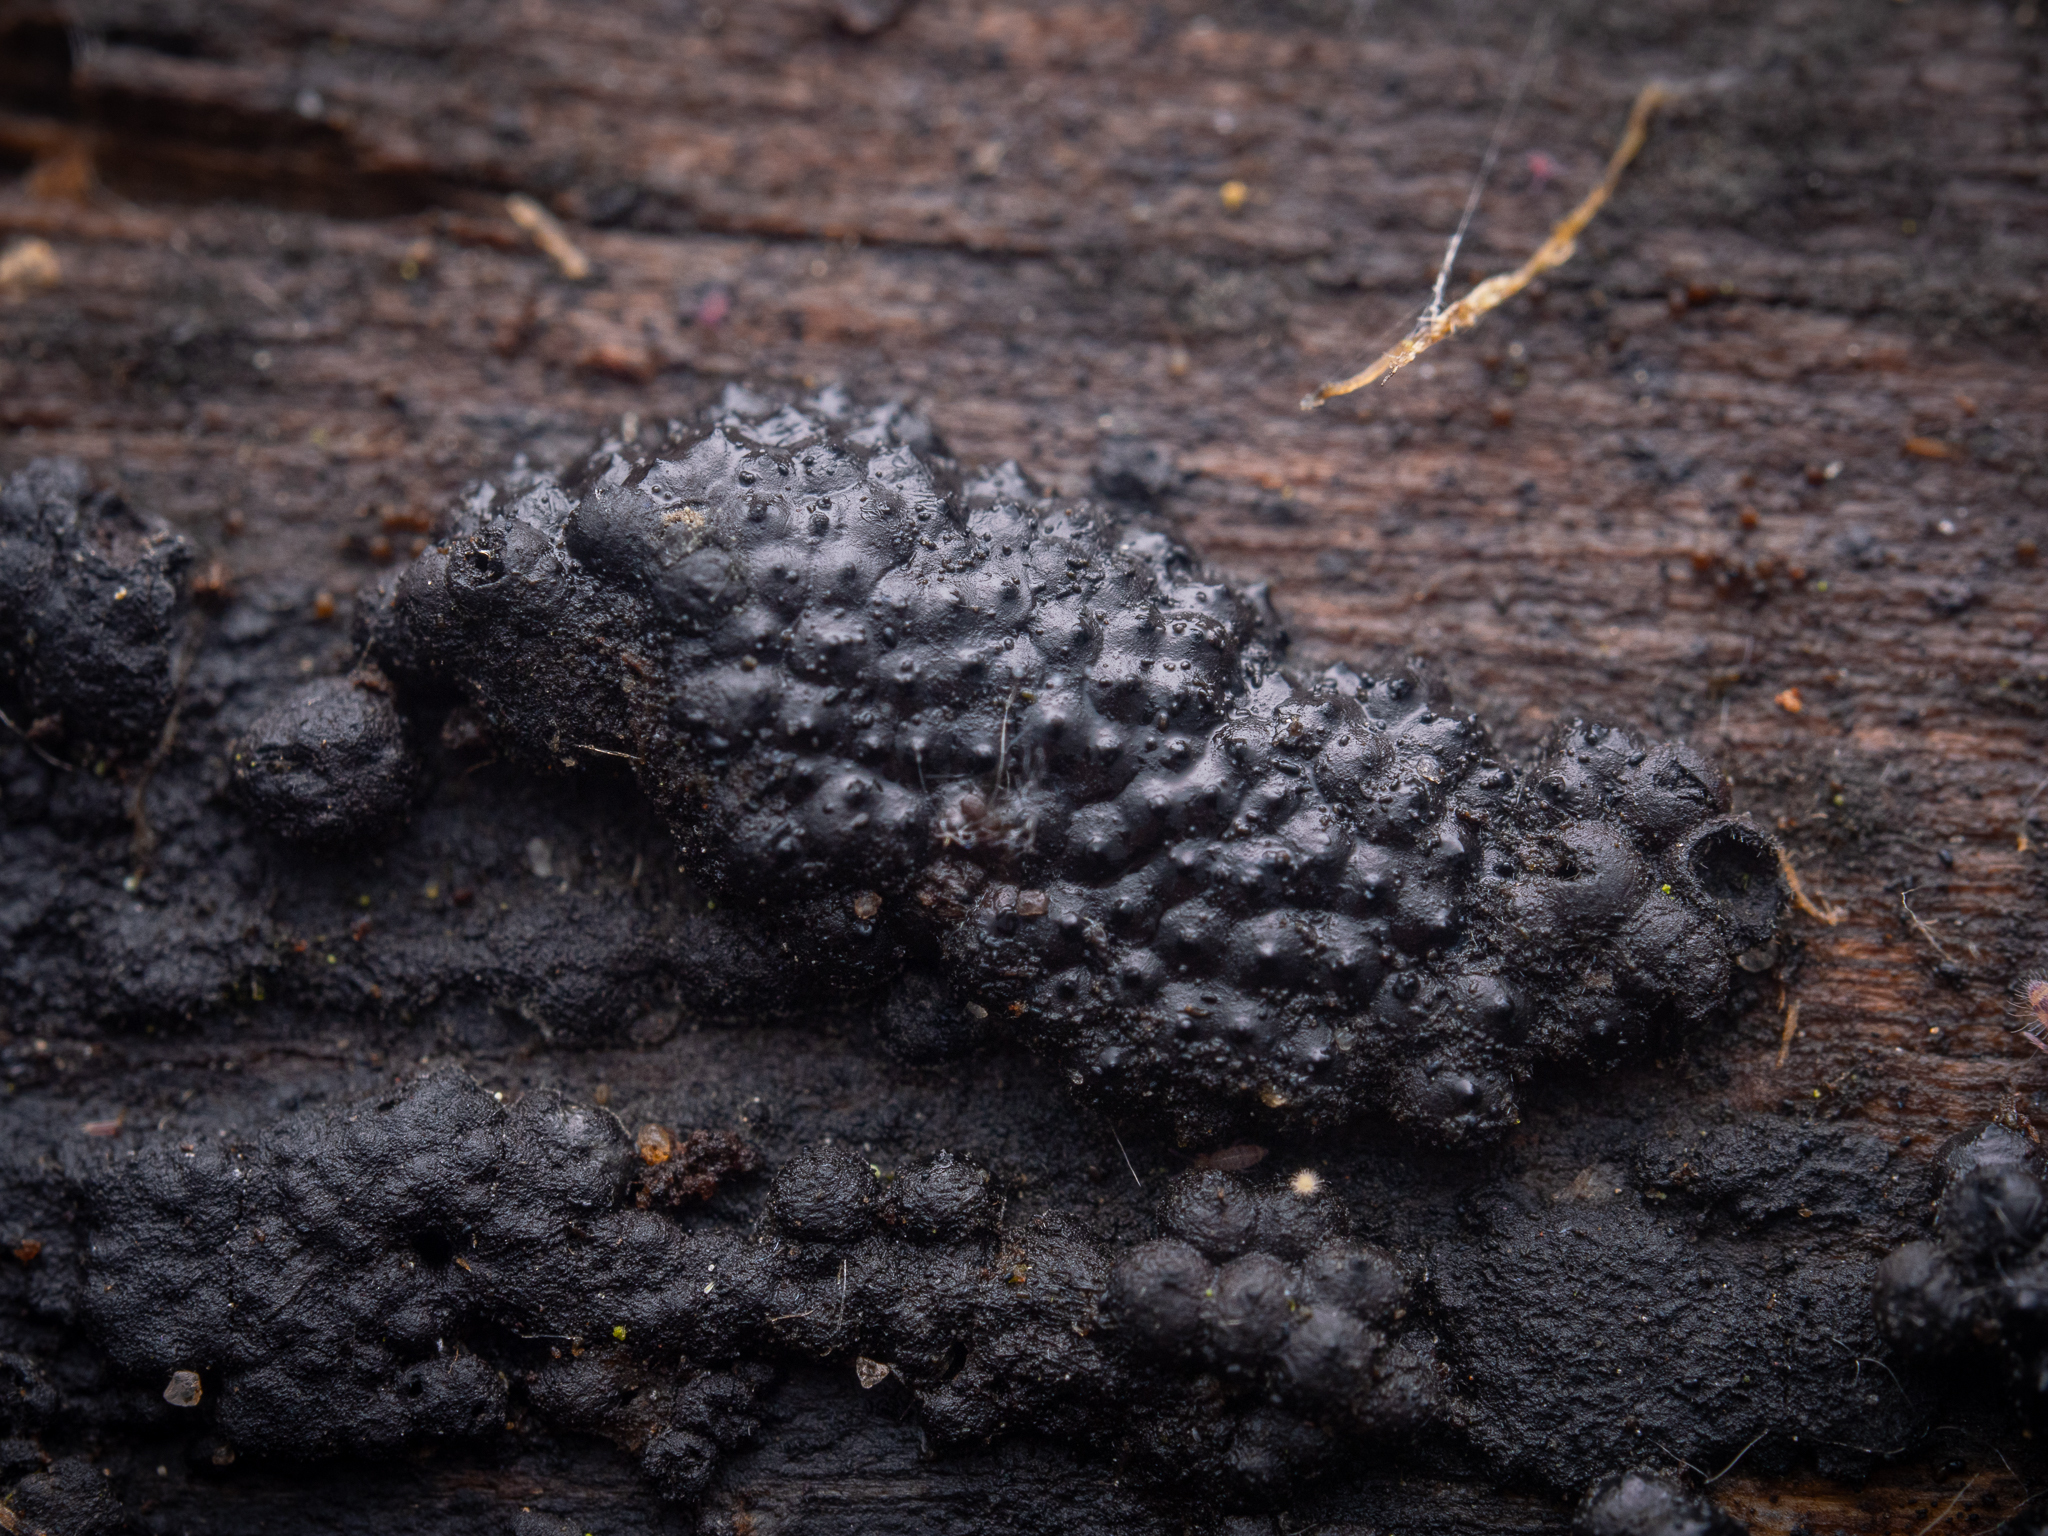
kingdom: Fungi
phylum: Ascomycota
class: Sordariomycetes
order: Xylariales
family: Hypoxylaceae
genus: Jackrogersella
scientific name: Jackrogersella multiformis
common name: Birch woodwart
